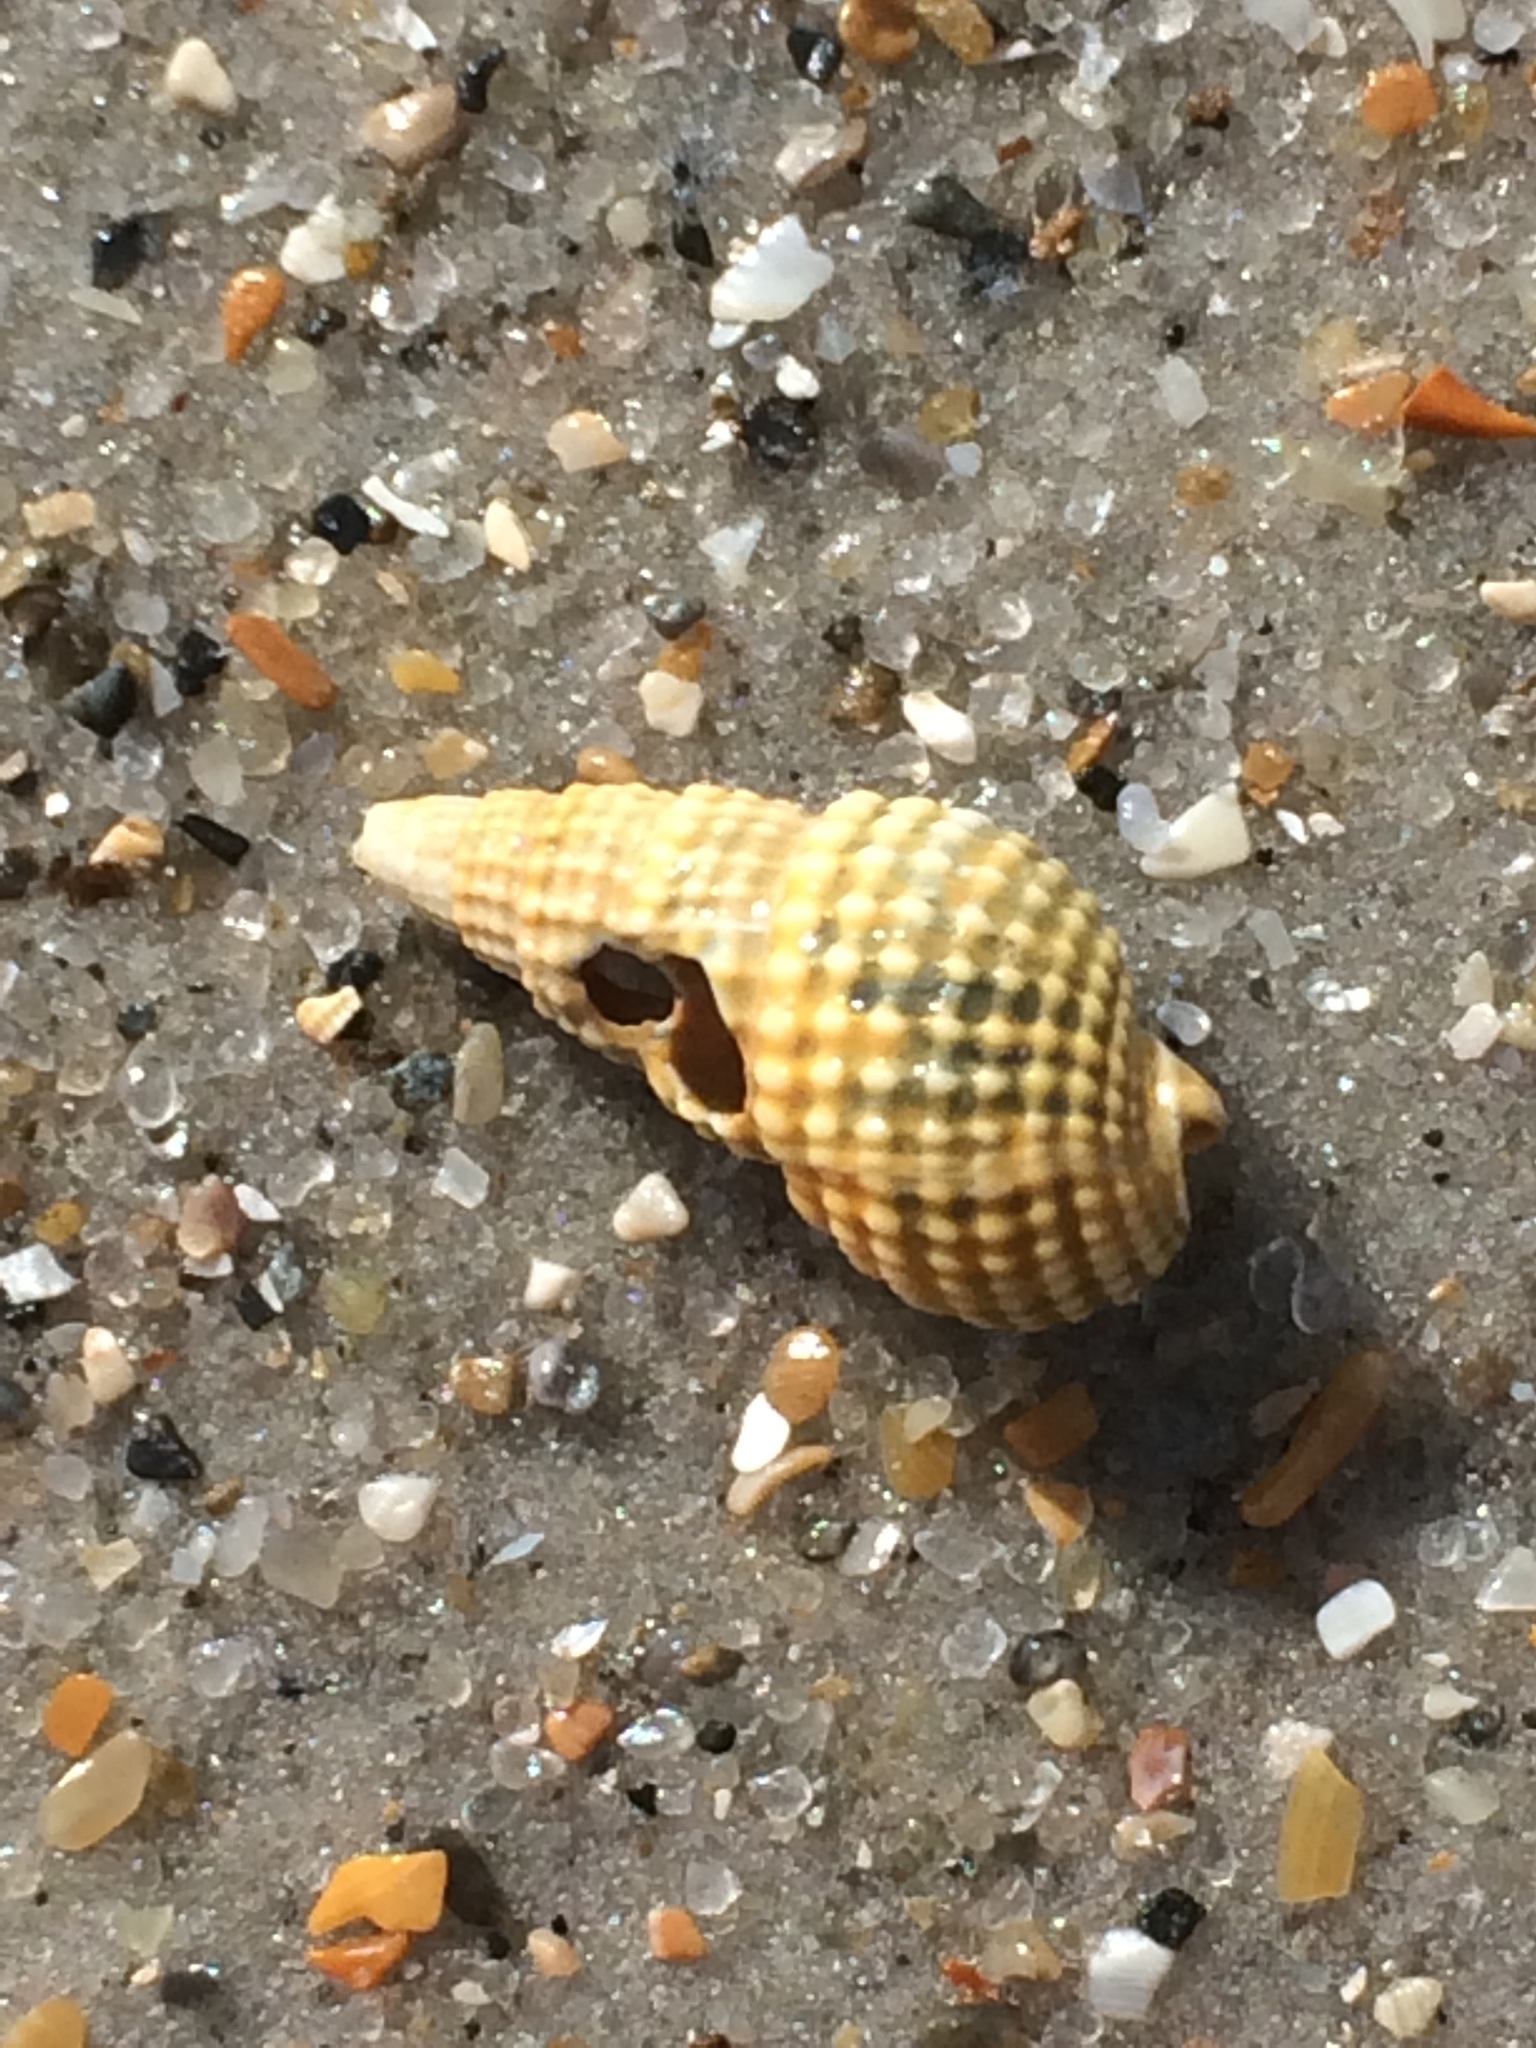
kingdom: Animalia
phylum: Mollusca
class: Gastropoda
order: Neogastropoda
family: Nassariidae
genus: Ilyanassa
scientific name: Ilyanassa trivittata
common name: Three-line mudsnail
